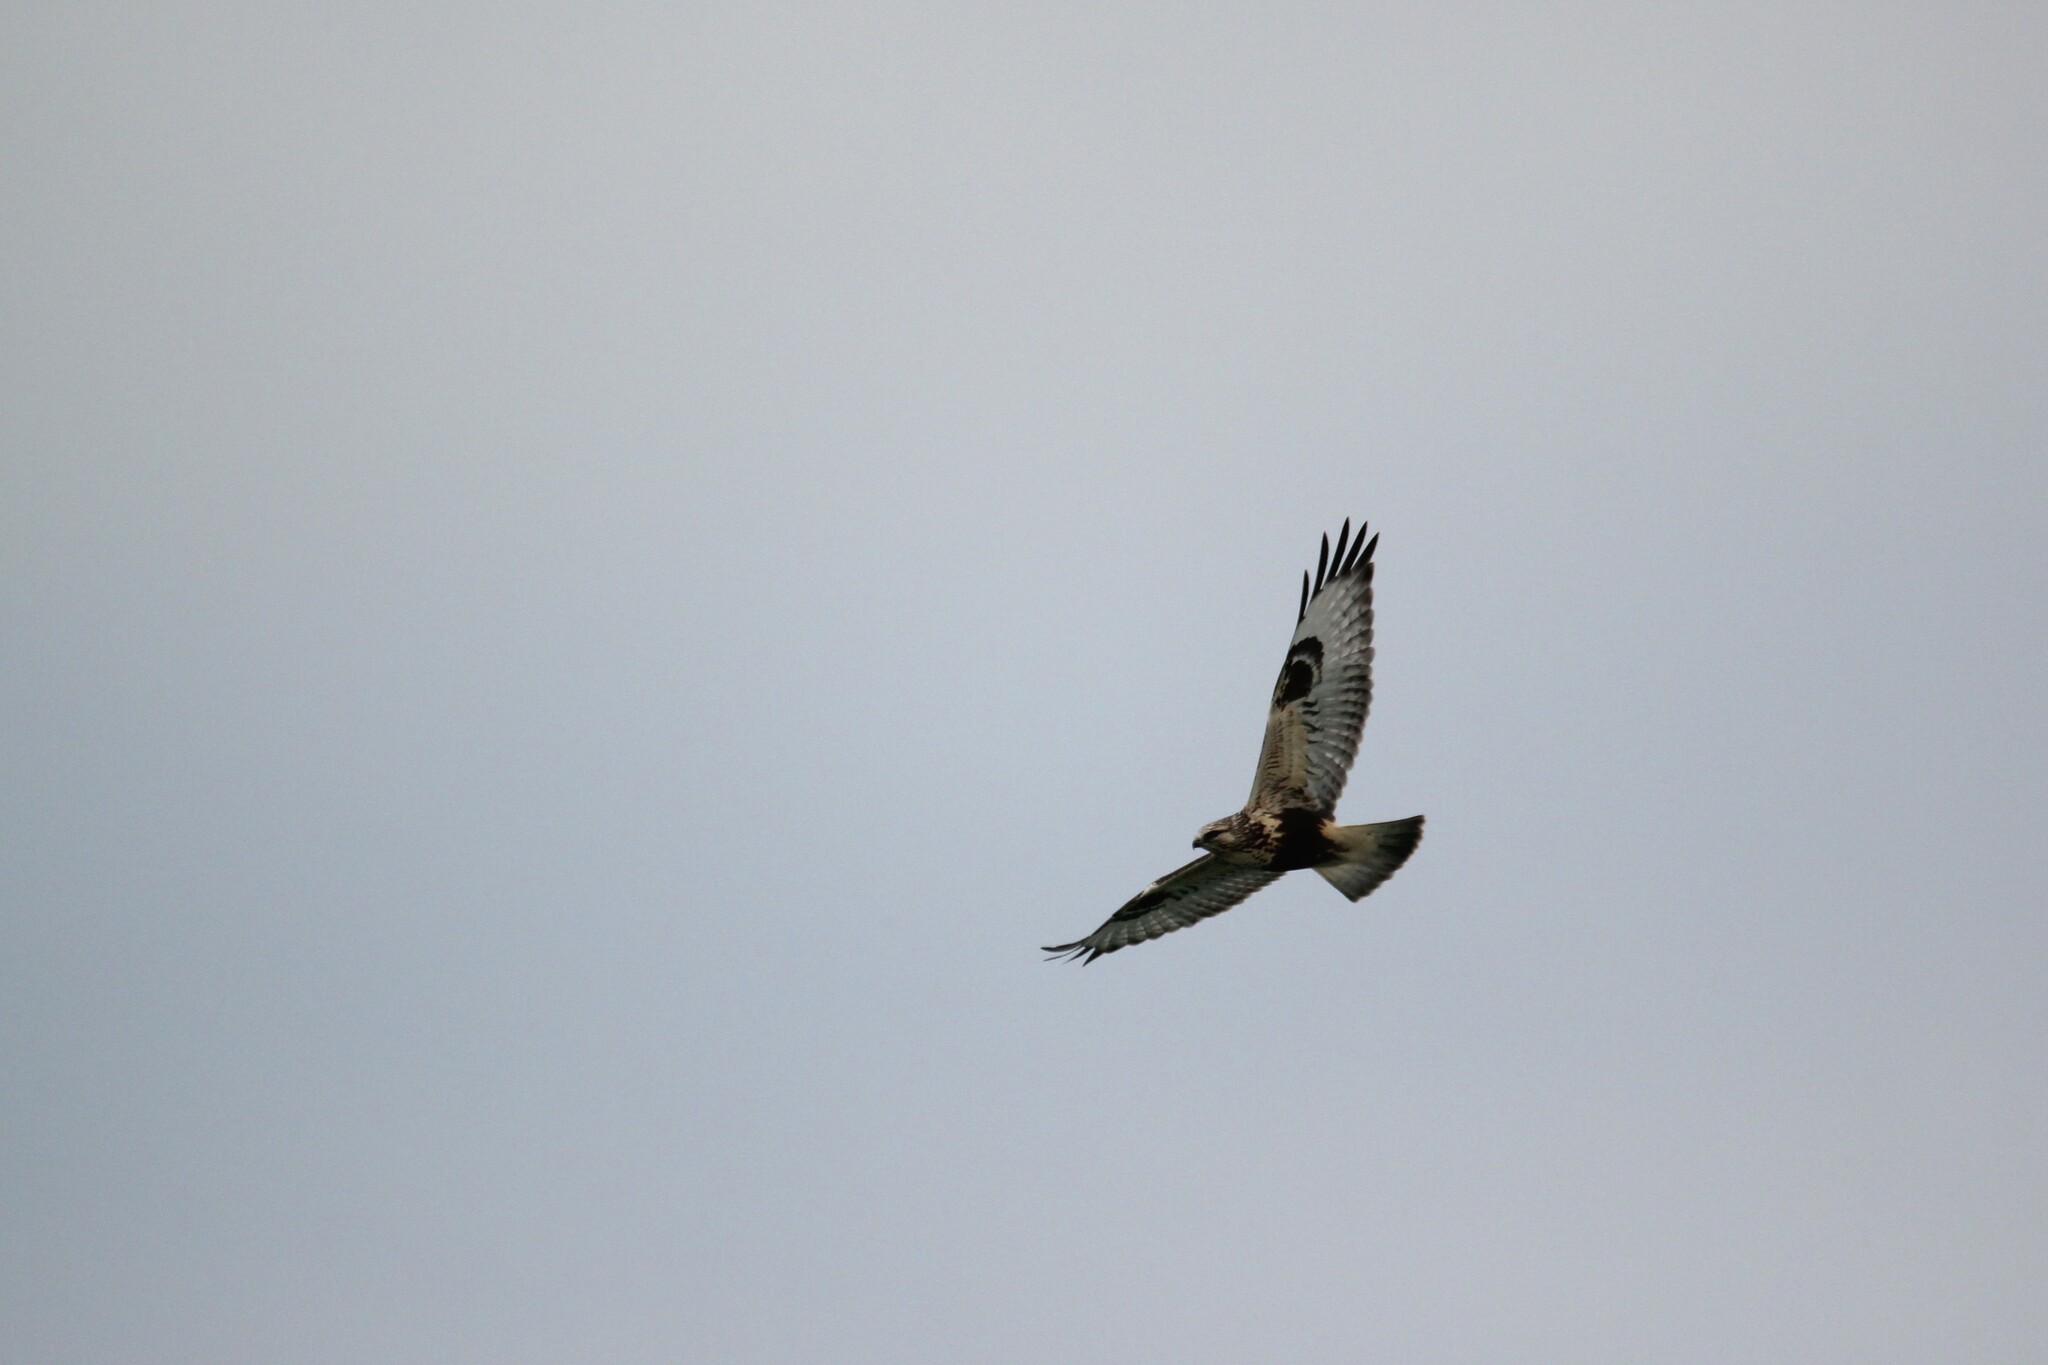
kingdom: Animalia
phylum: Chordata
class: Aves
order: Accipitriformes
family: Accipitridae
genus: Buteo
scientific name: Buteo lagopus
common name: Rough-legged buzzard
